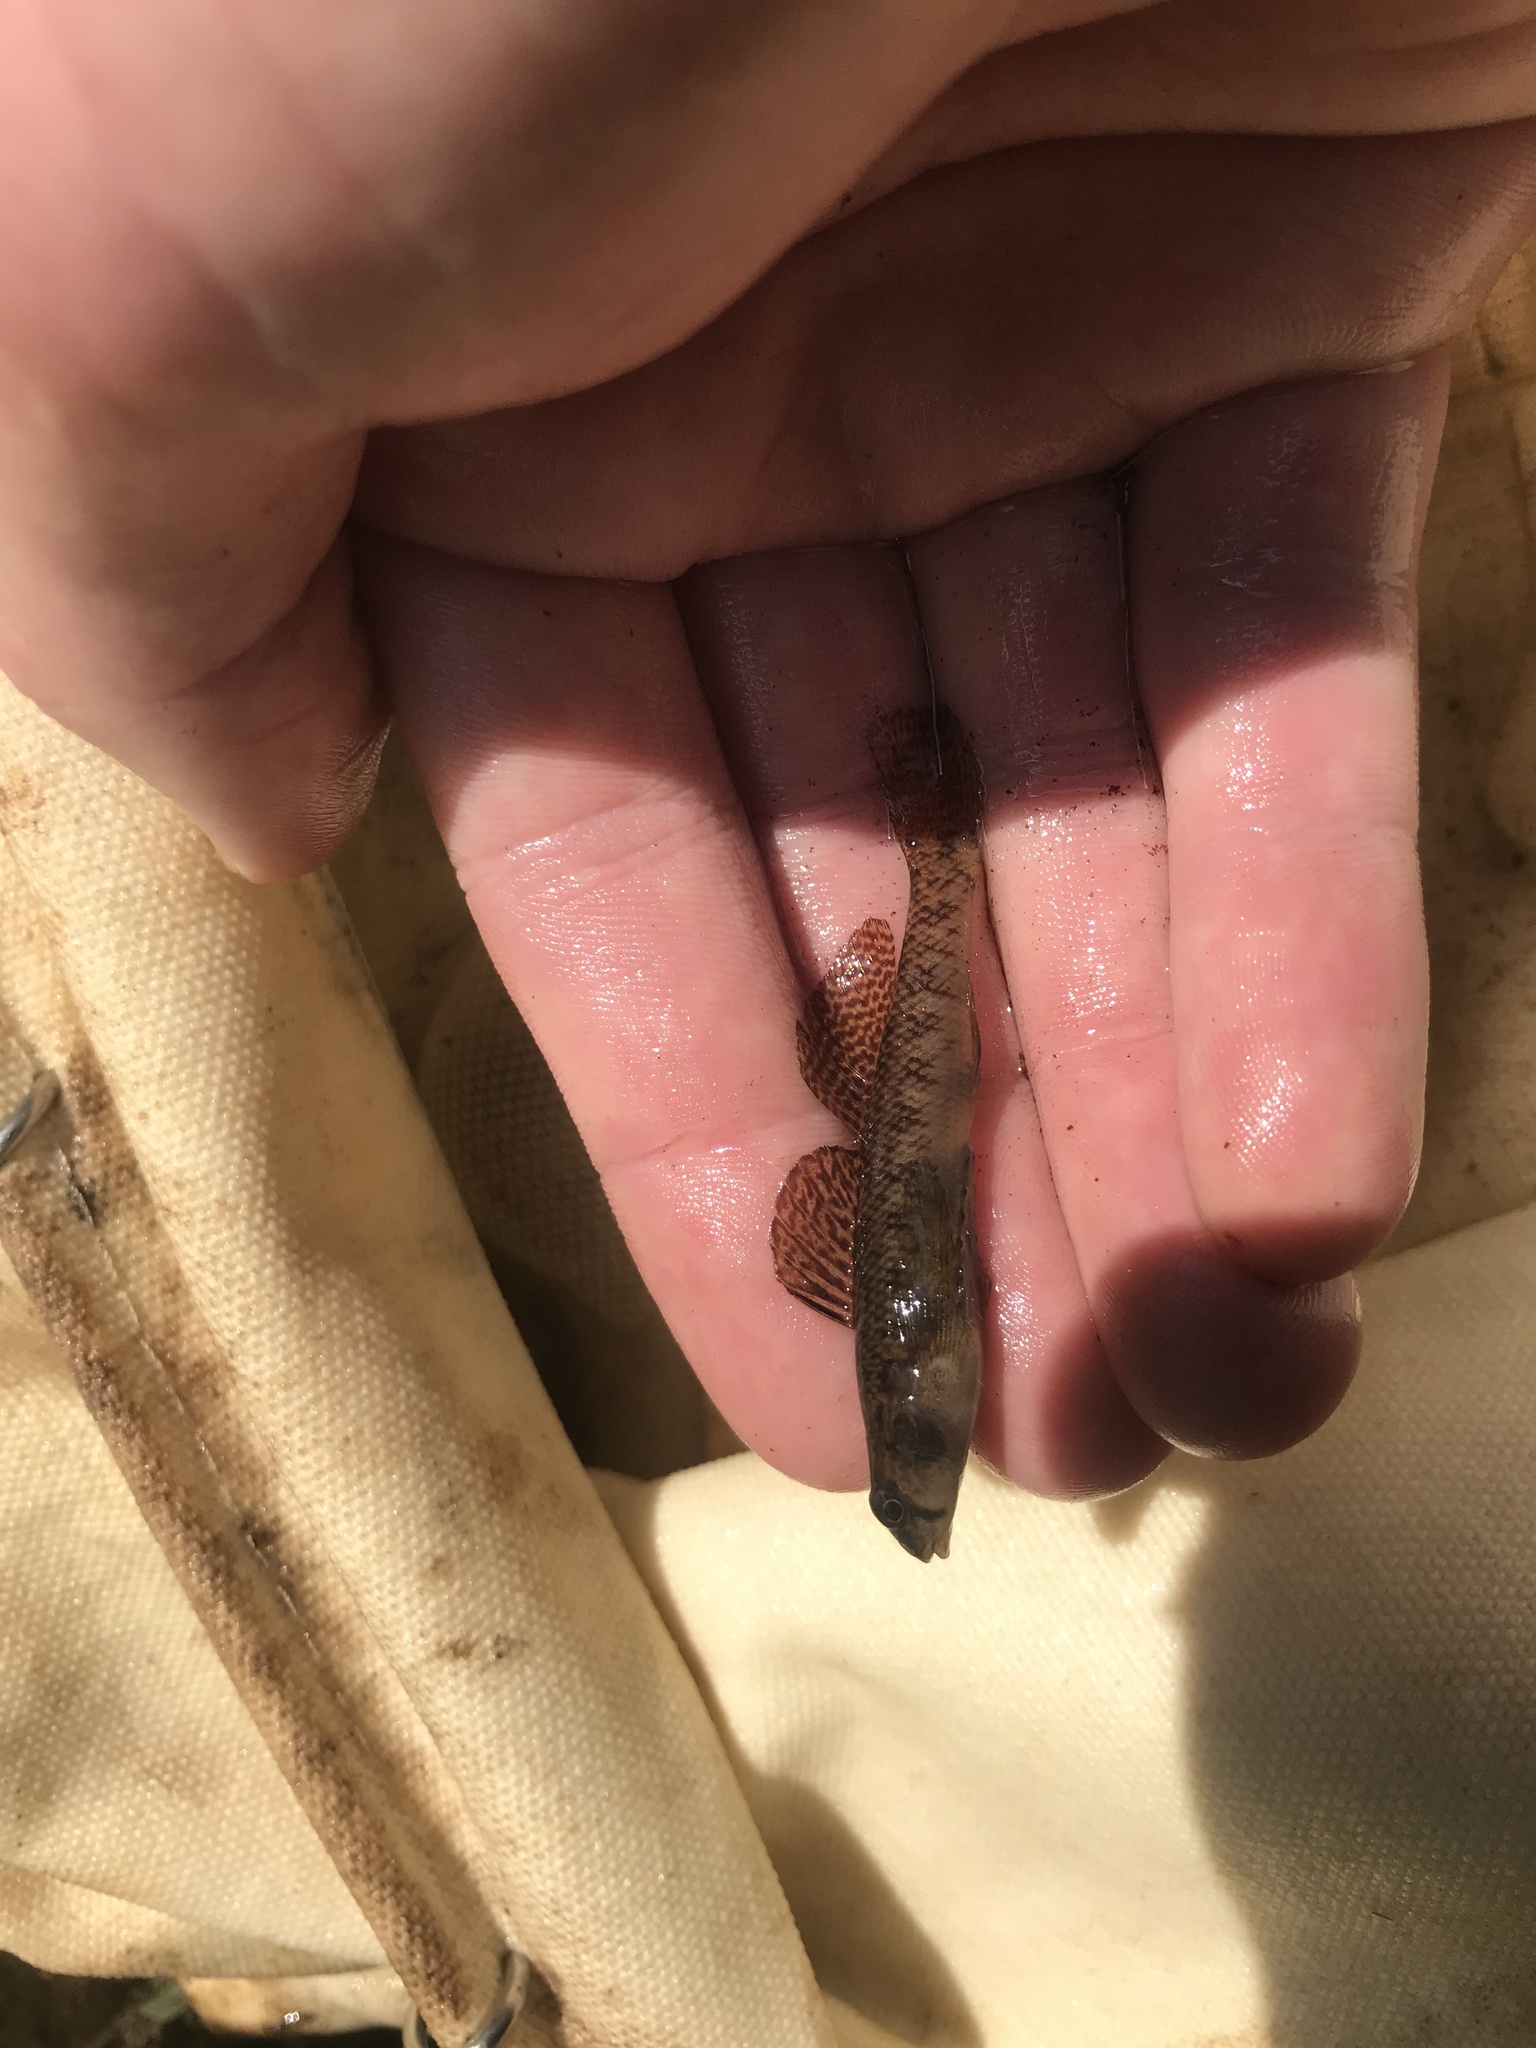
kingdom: Animalia
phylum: Chordata
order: Perciformes
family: Percidae
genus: Etheostoma
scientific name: Etheostoma olmstedi
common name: Tessellated darter
